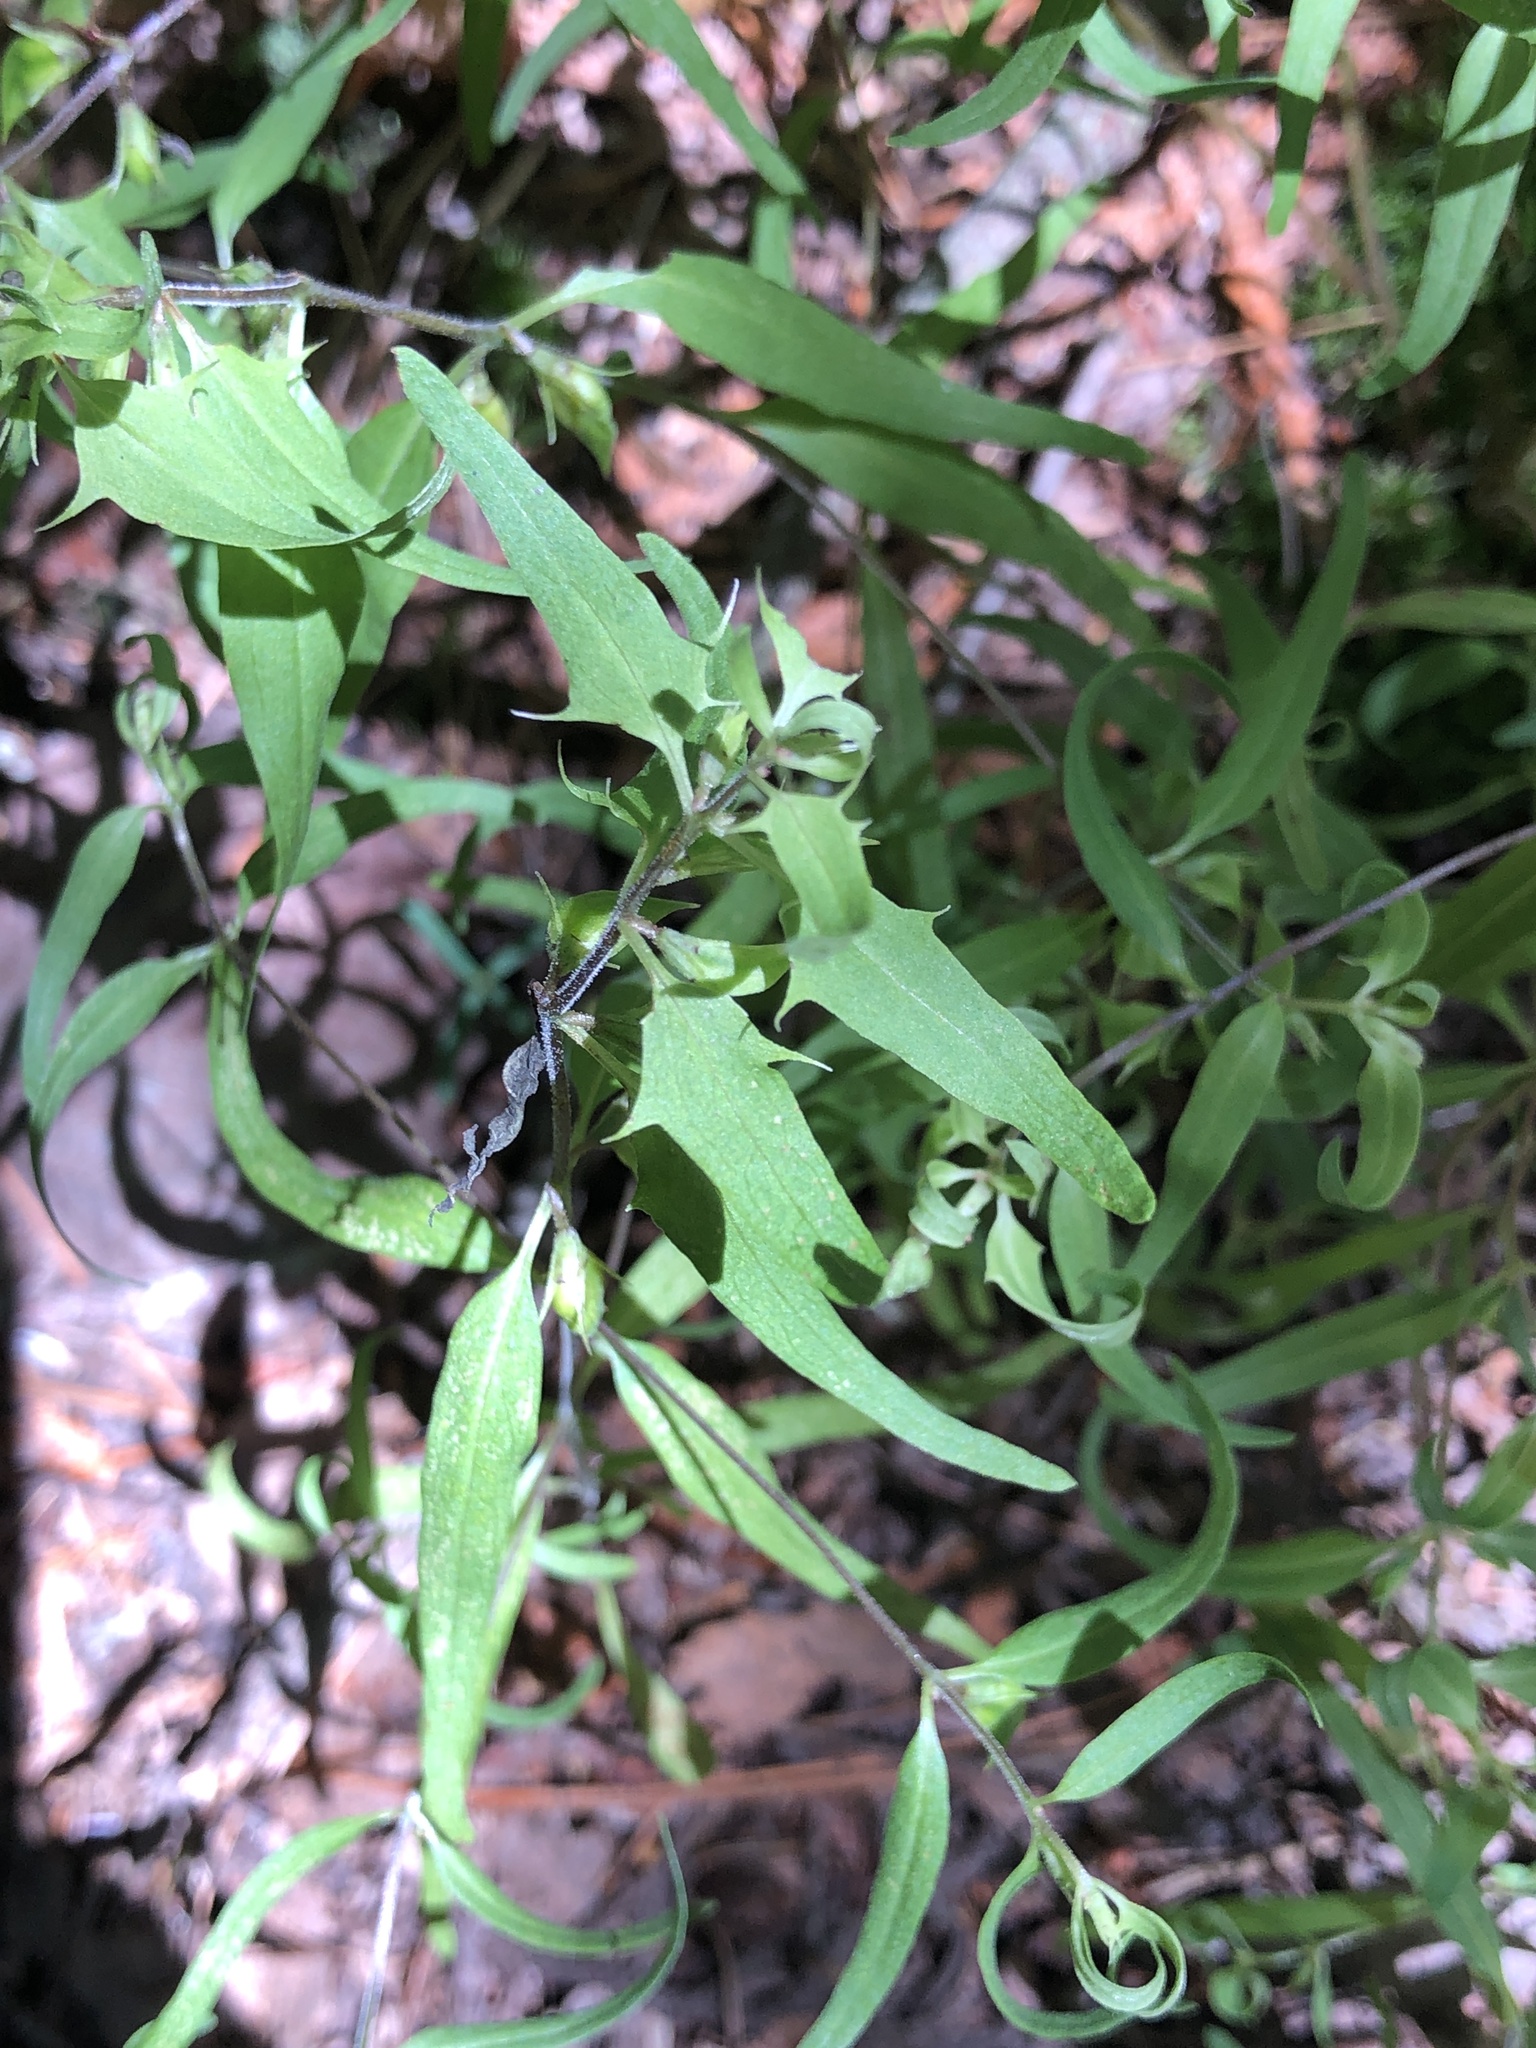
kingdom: Plantae
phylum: Tracheophyta
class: Magnoliopsida
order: Lamiales
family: Orobanchaceae
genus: Melampyrum
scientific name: Melampyrum lineare
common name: American cow-wheat
